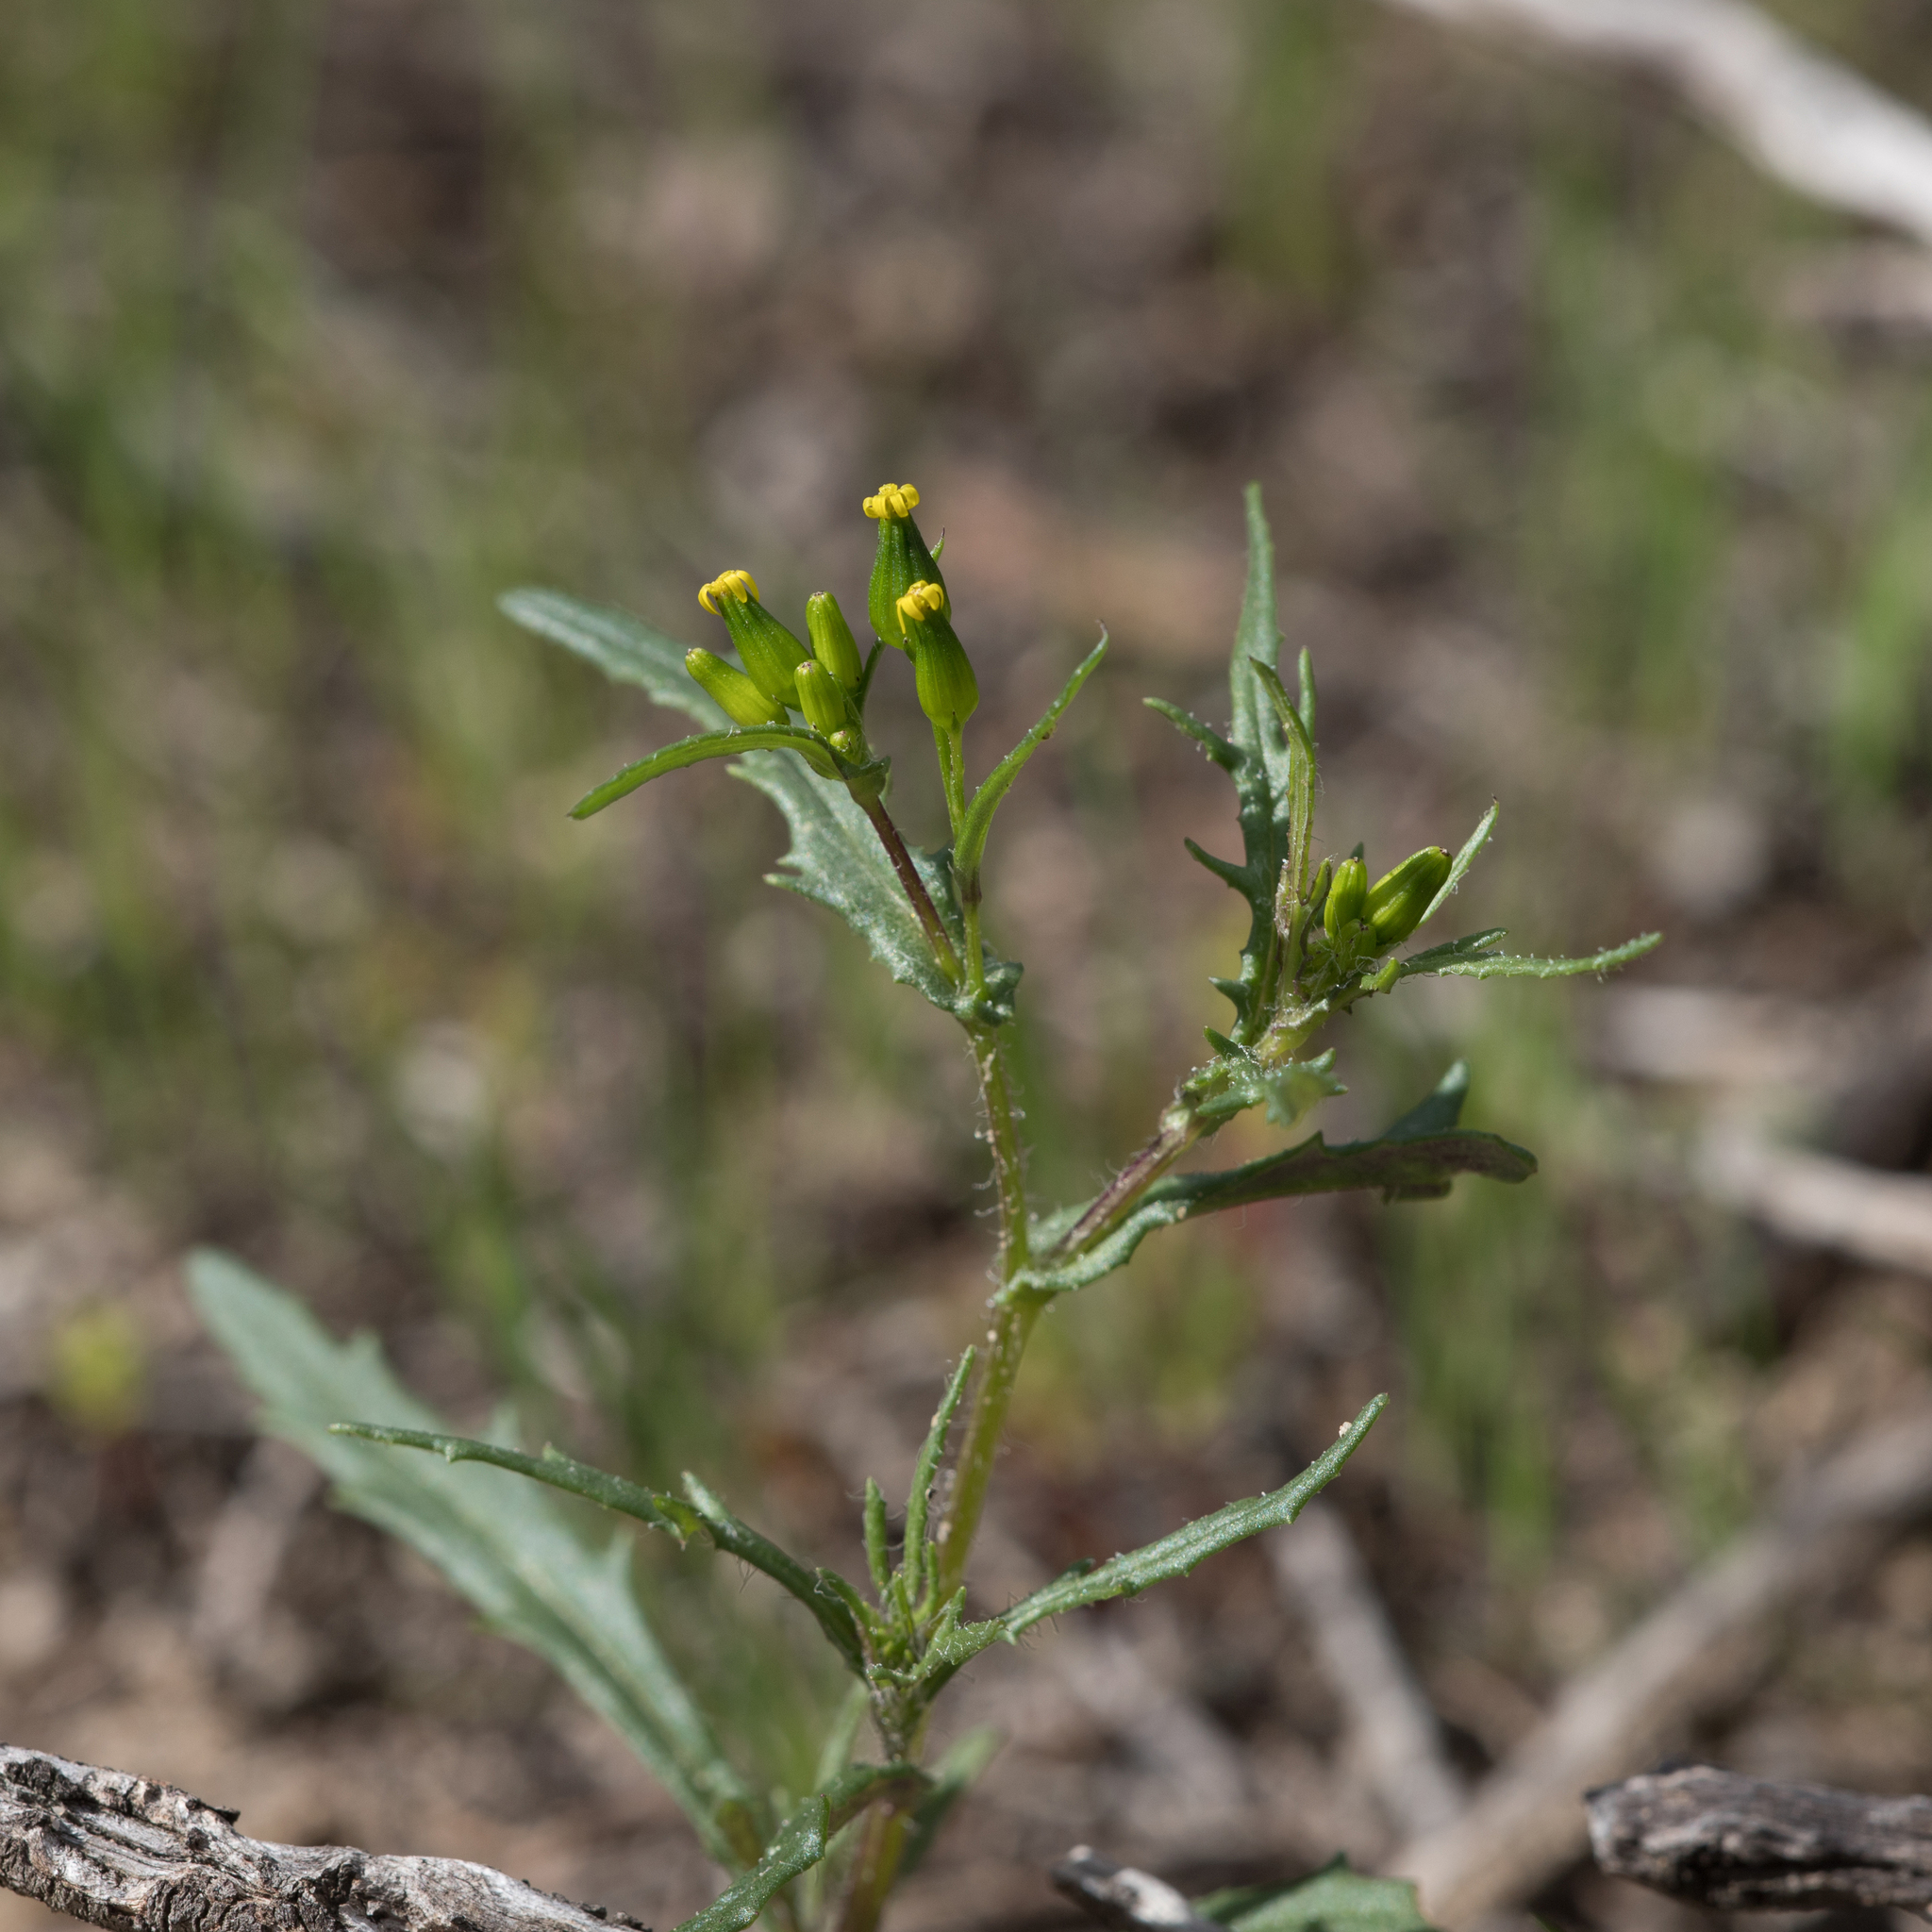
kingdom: Plantae
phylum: Tracheophyta
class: Magnoliopsida
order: Asterales
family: Asteraceae
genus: Senecio
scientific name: Senecio glossanthus
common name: Slender groundsel
